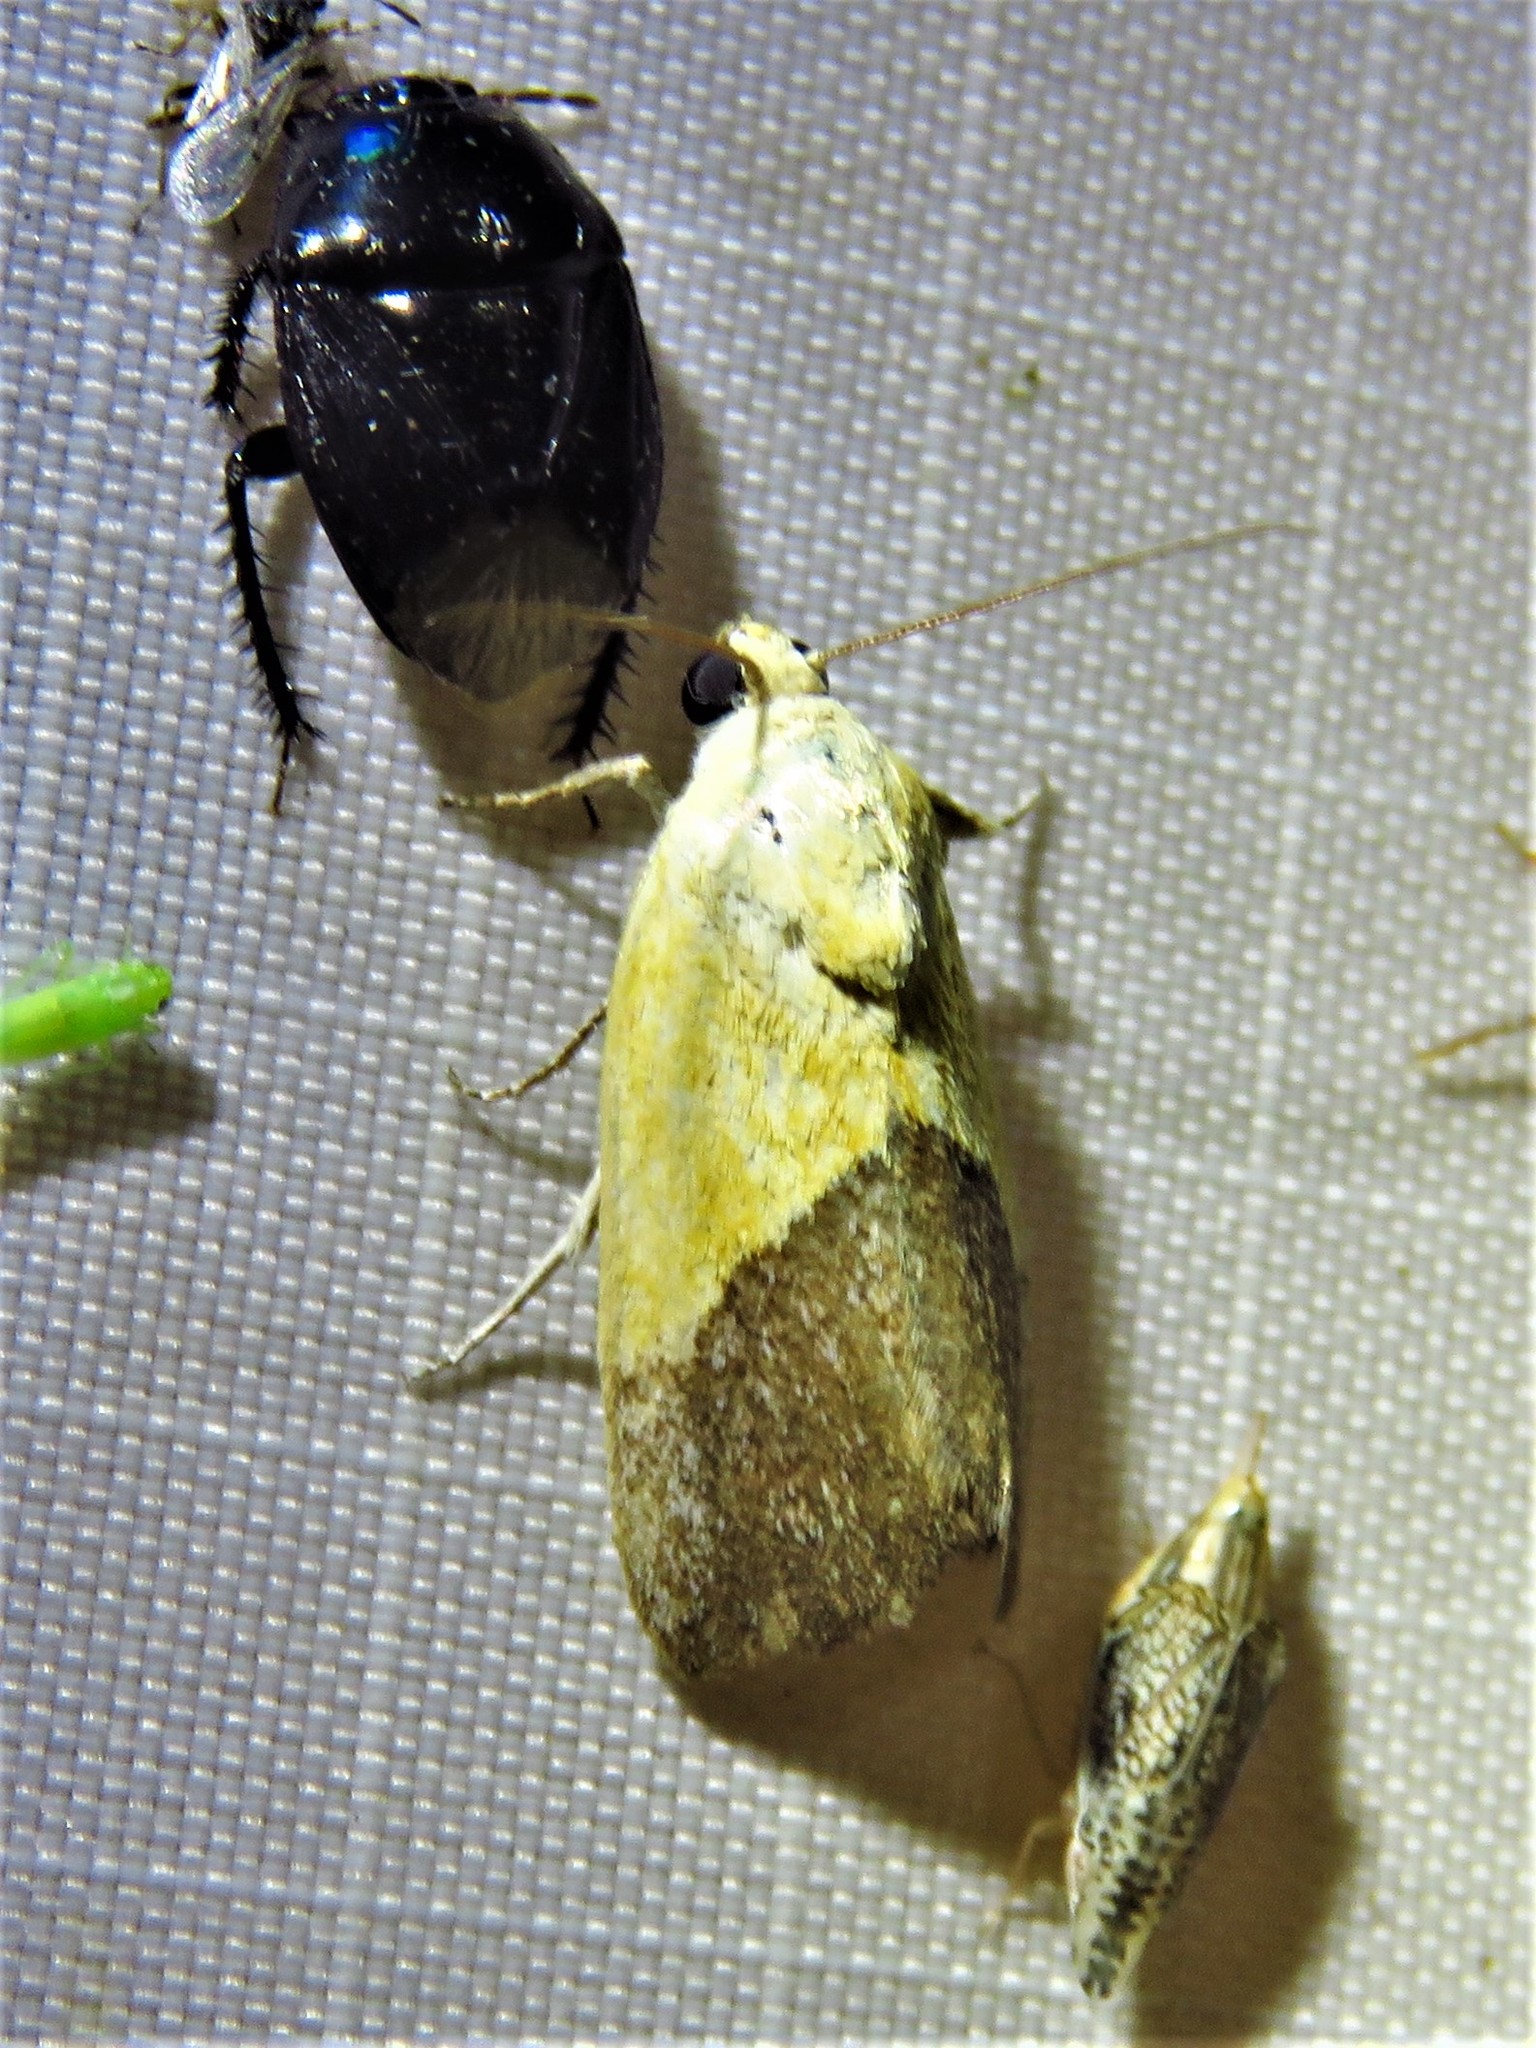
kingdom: Animalia
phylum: Arthropoda
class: Insecta
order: Lepidoptera
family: Noctuidae
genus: Acontia
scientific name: Acontia semiflava
